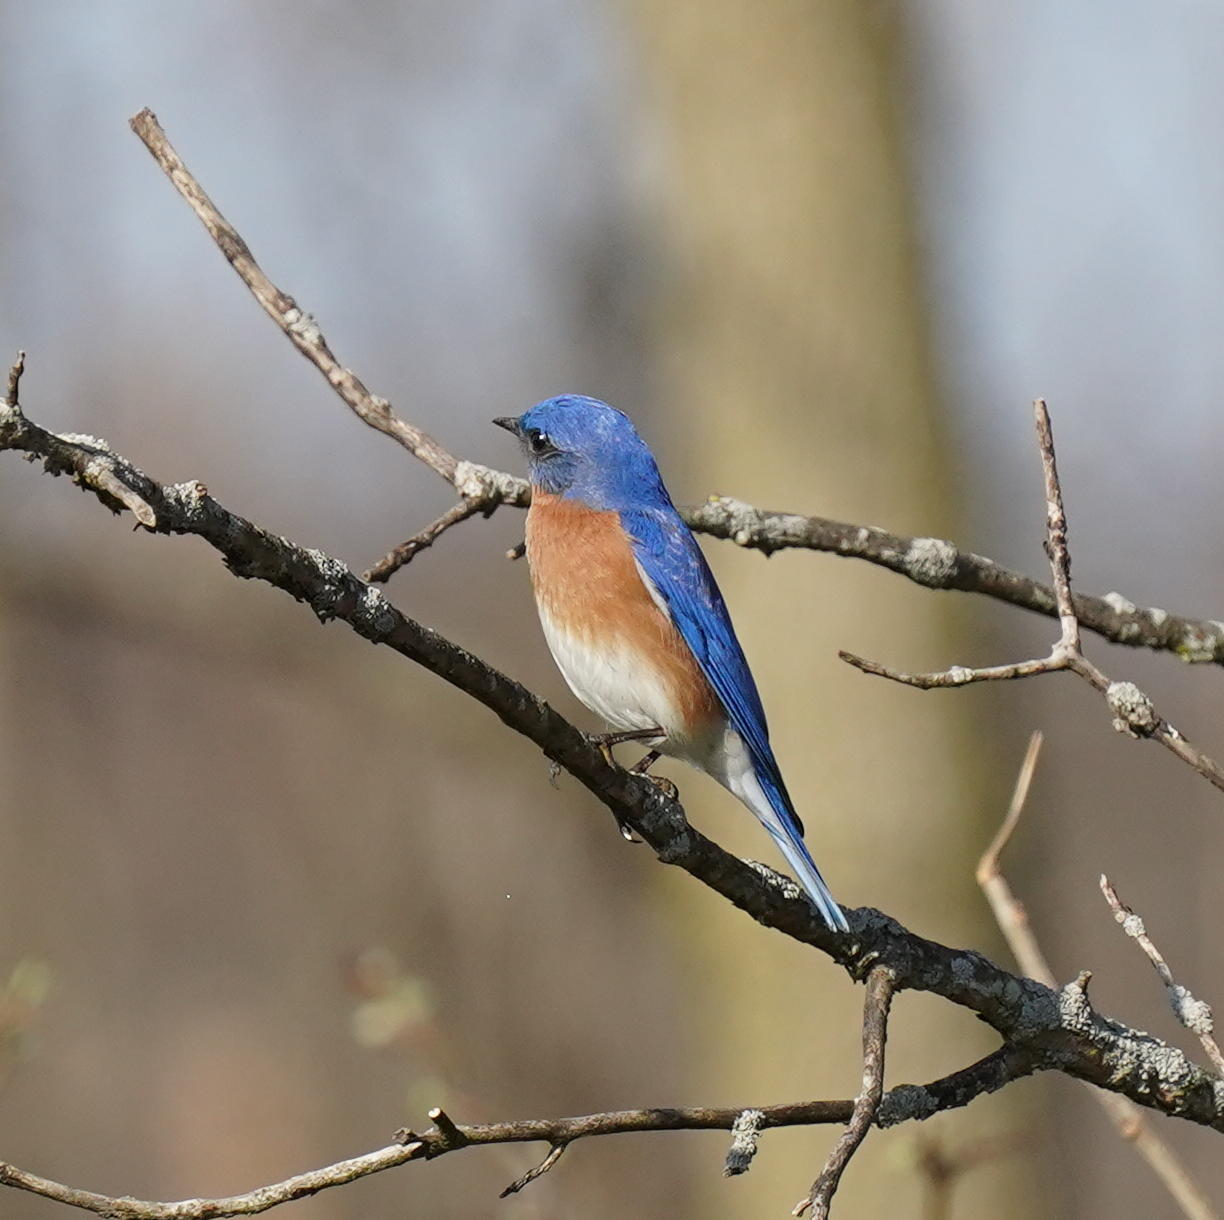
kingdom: Animalia
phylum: Chordata
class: Aves
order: Passeriformes
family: Turdidae
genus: Sialia
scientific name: Sialia sialis
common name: Eastern bluebird
